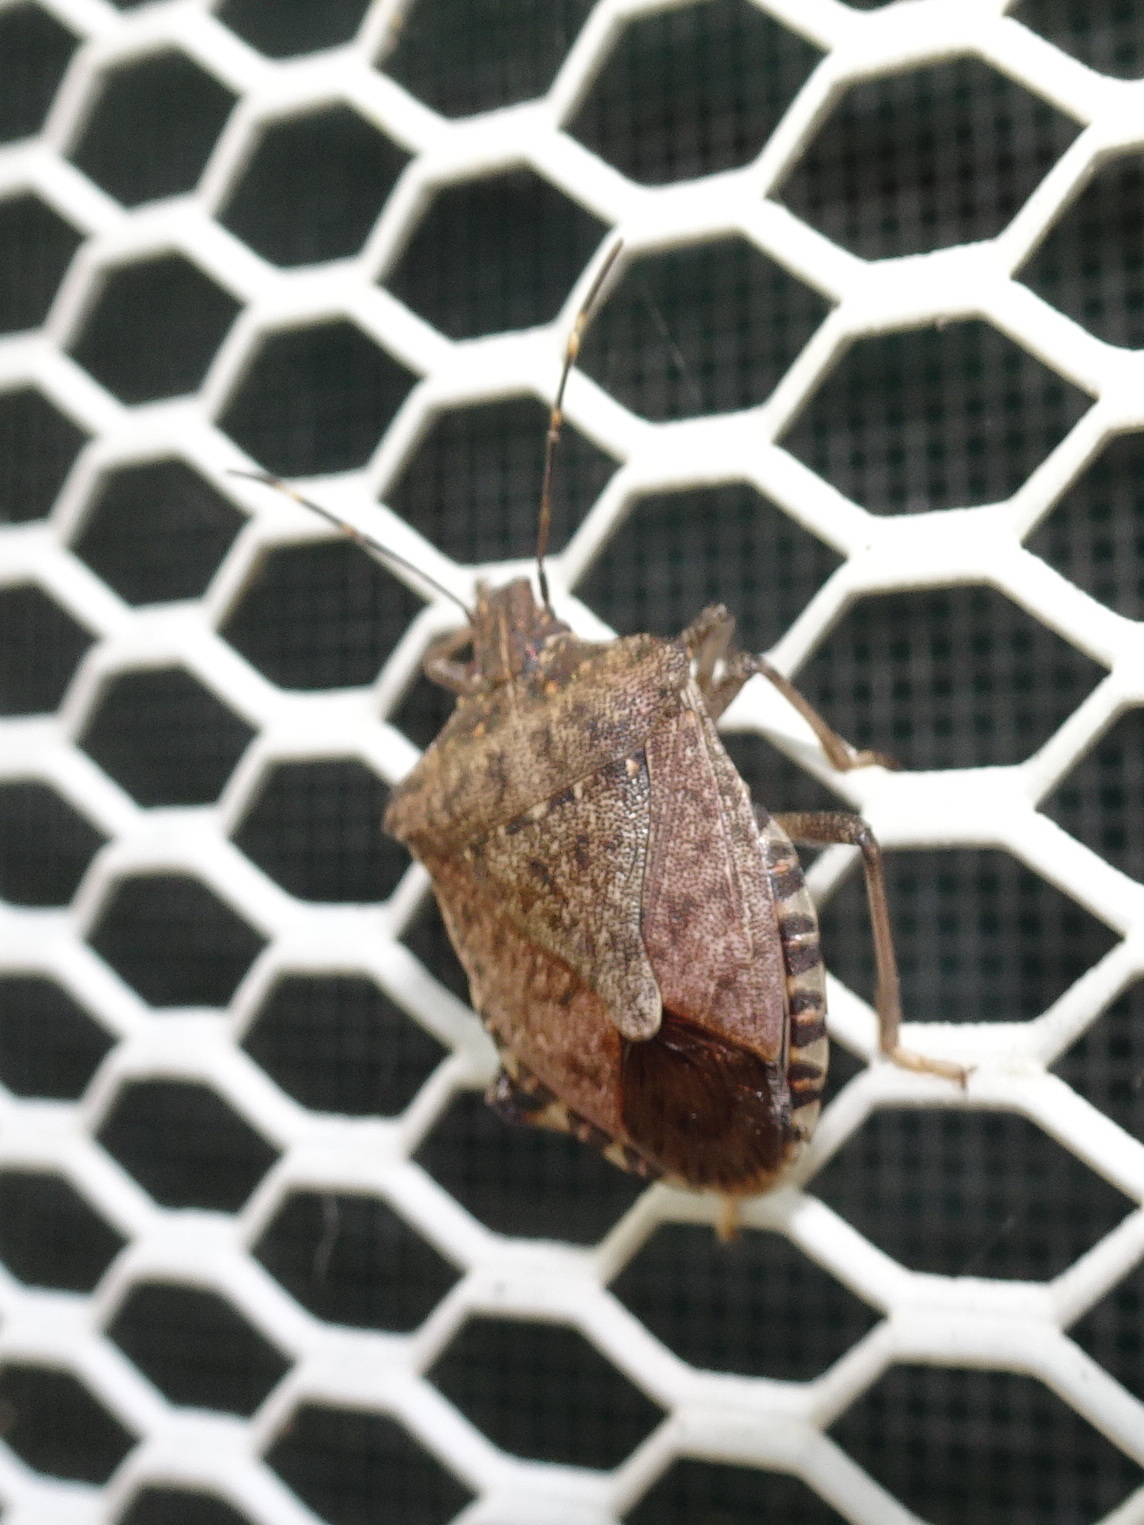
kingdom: Animalia
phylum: Arthropoda
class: Insecta
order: Hemiptera
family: Pentatomidae
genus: Halyomorpha
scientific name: Halyomorpha halys
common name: Brown marmorated stink bug
